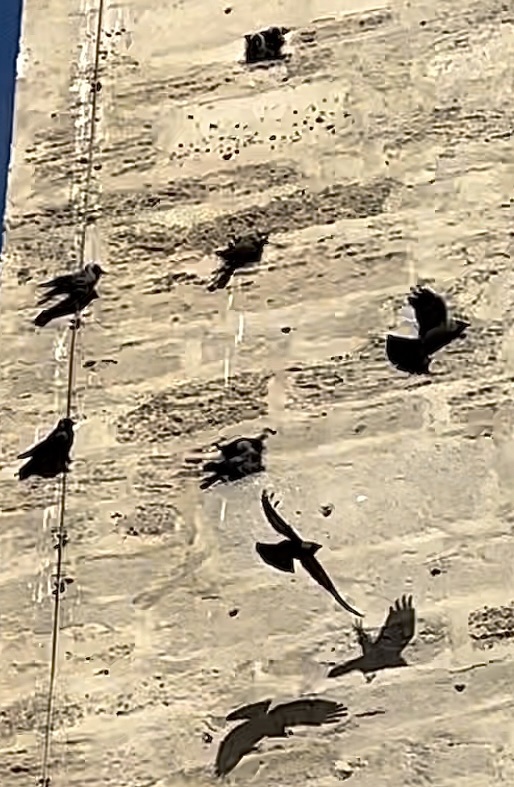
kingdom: Animalia
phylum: Chordata
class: Aves
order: Passeriformes
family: Corvidae
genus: Coloeus
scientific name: Coloeus monedula
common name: Western jackdaw
